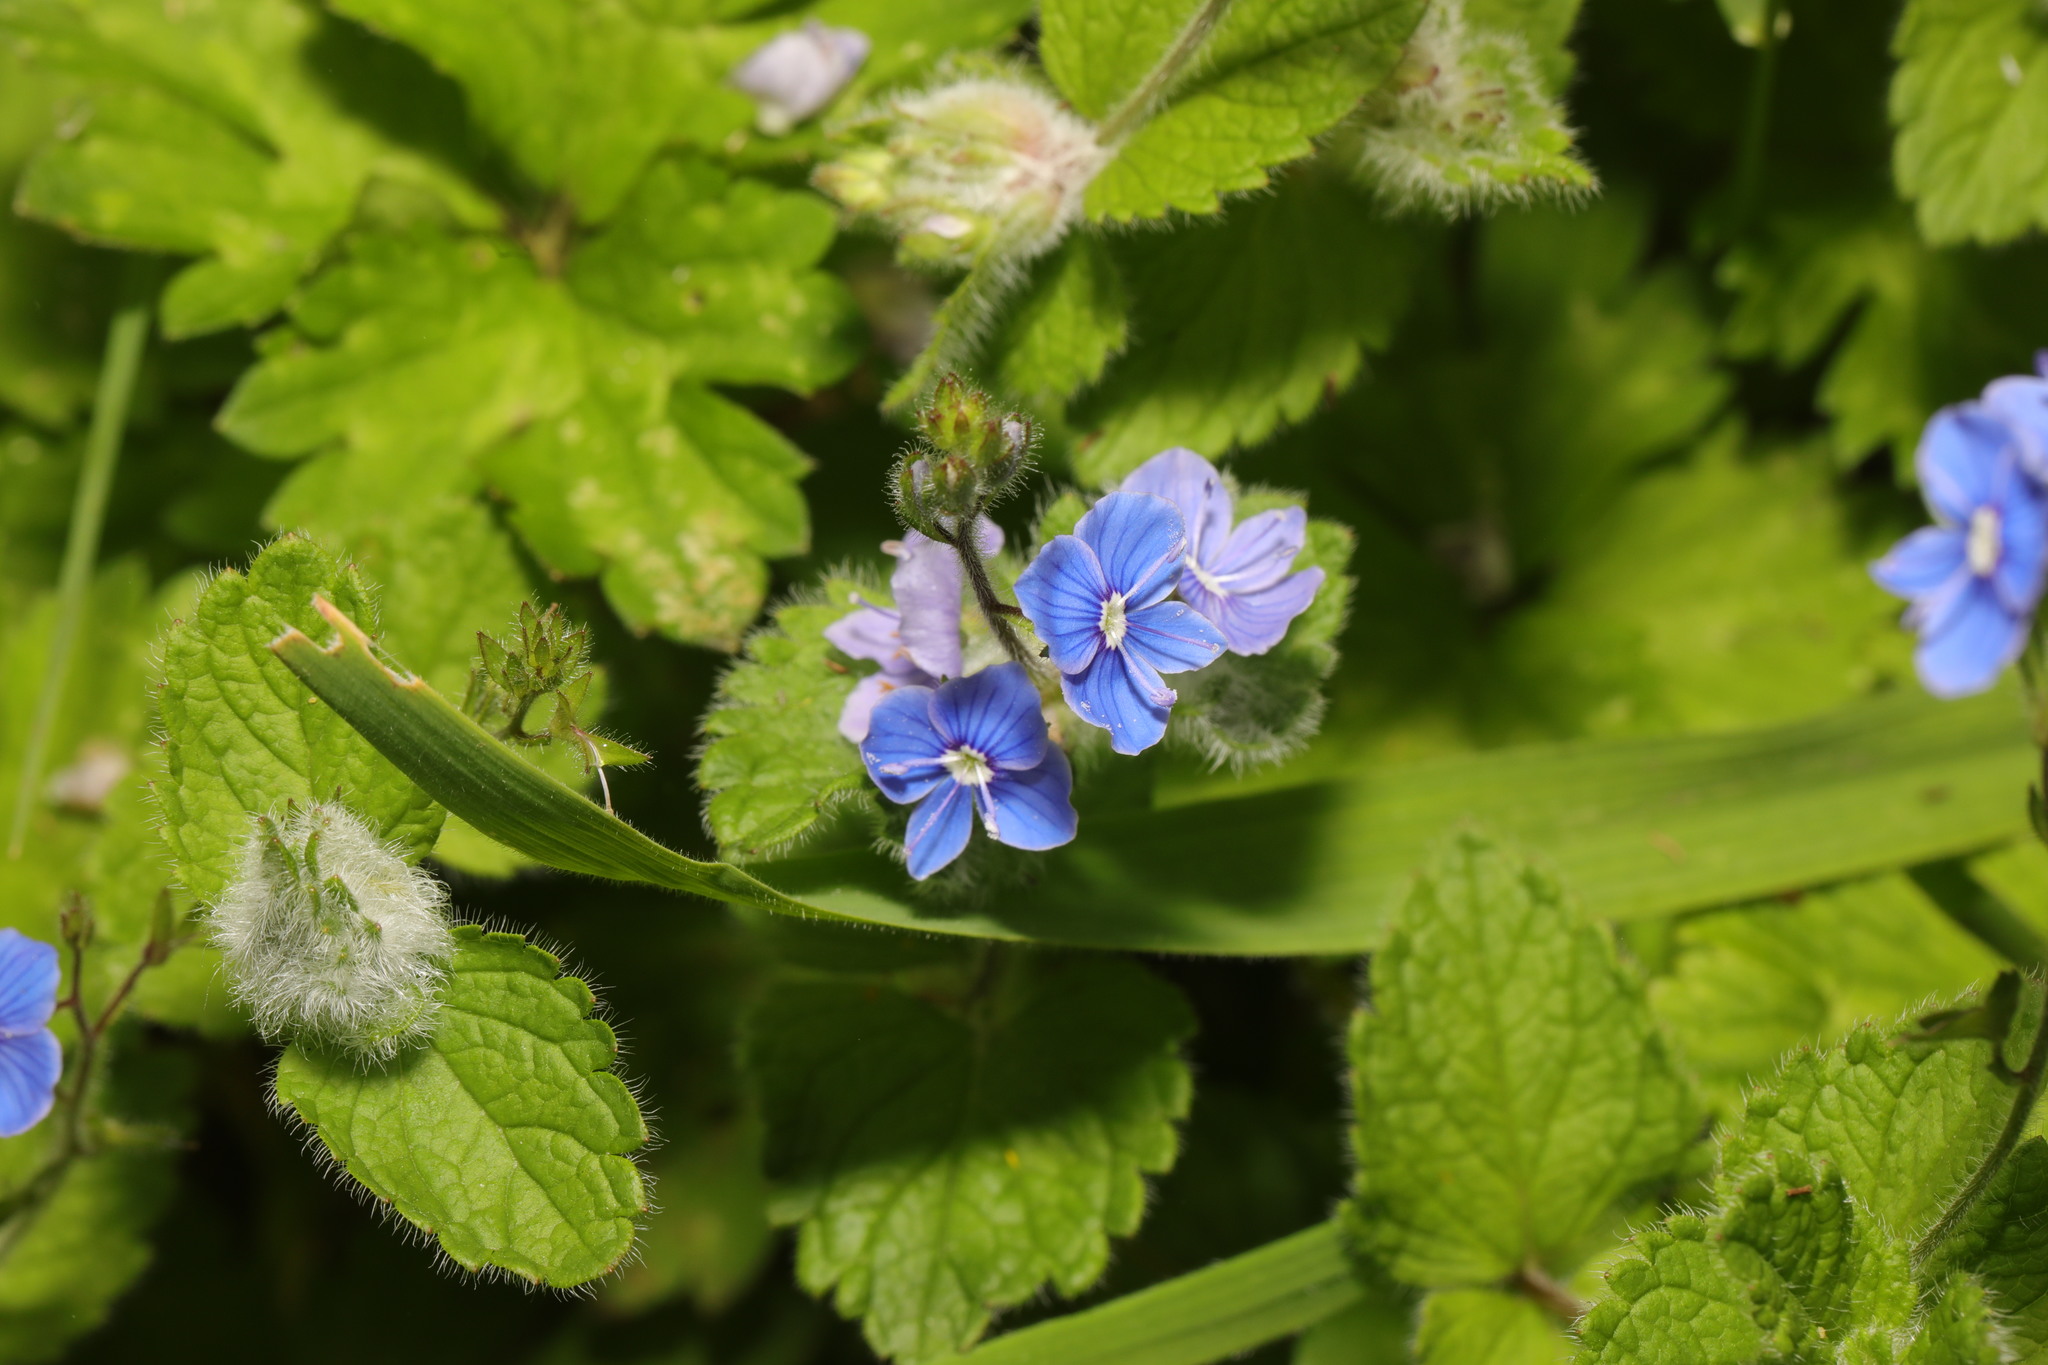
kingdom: Plantae
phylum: Tracheophyta
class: Magnoliopsida
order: Lamiales
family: Plantaginaceae
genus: Veronica
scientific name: Veronica chamaedrys
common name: Germander speedwell
